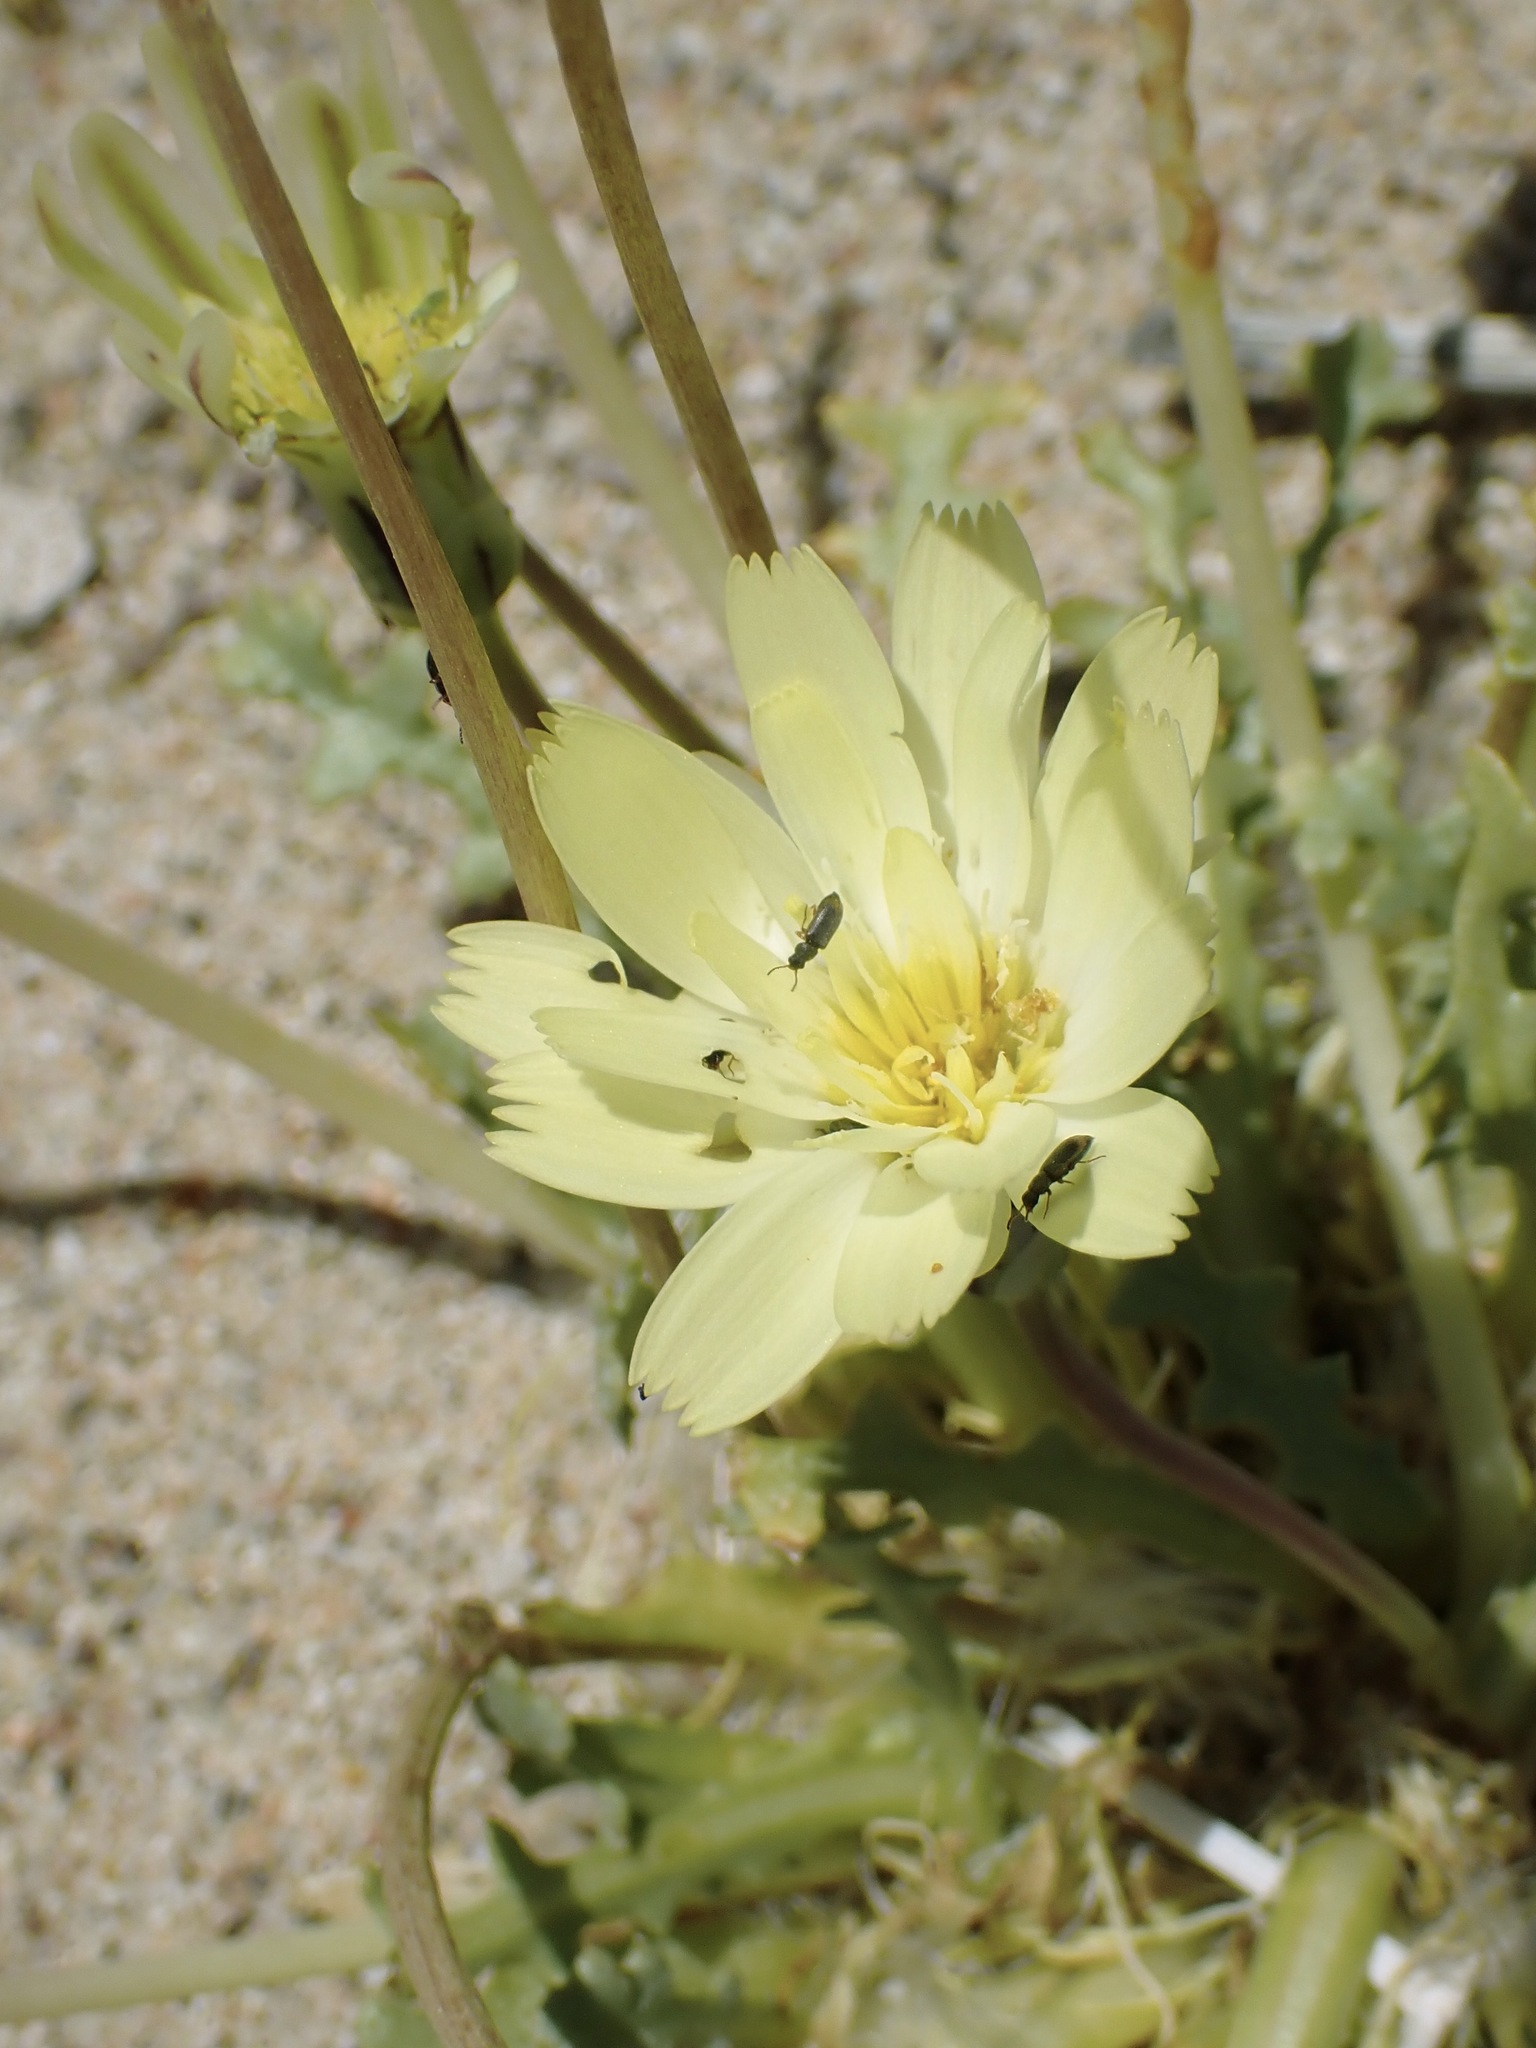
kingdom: Plantae
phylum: Tracheophyta
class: Magnoliopsida
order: Asterales
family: Asteraceae
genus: Anisocoma
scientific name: Anisocoma acaulis
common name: Scalebud
